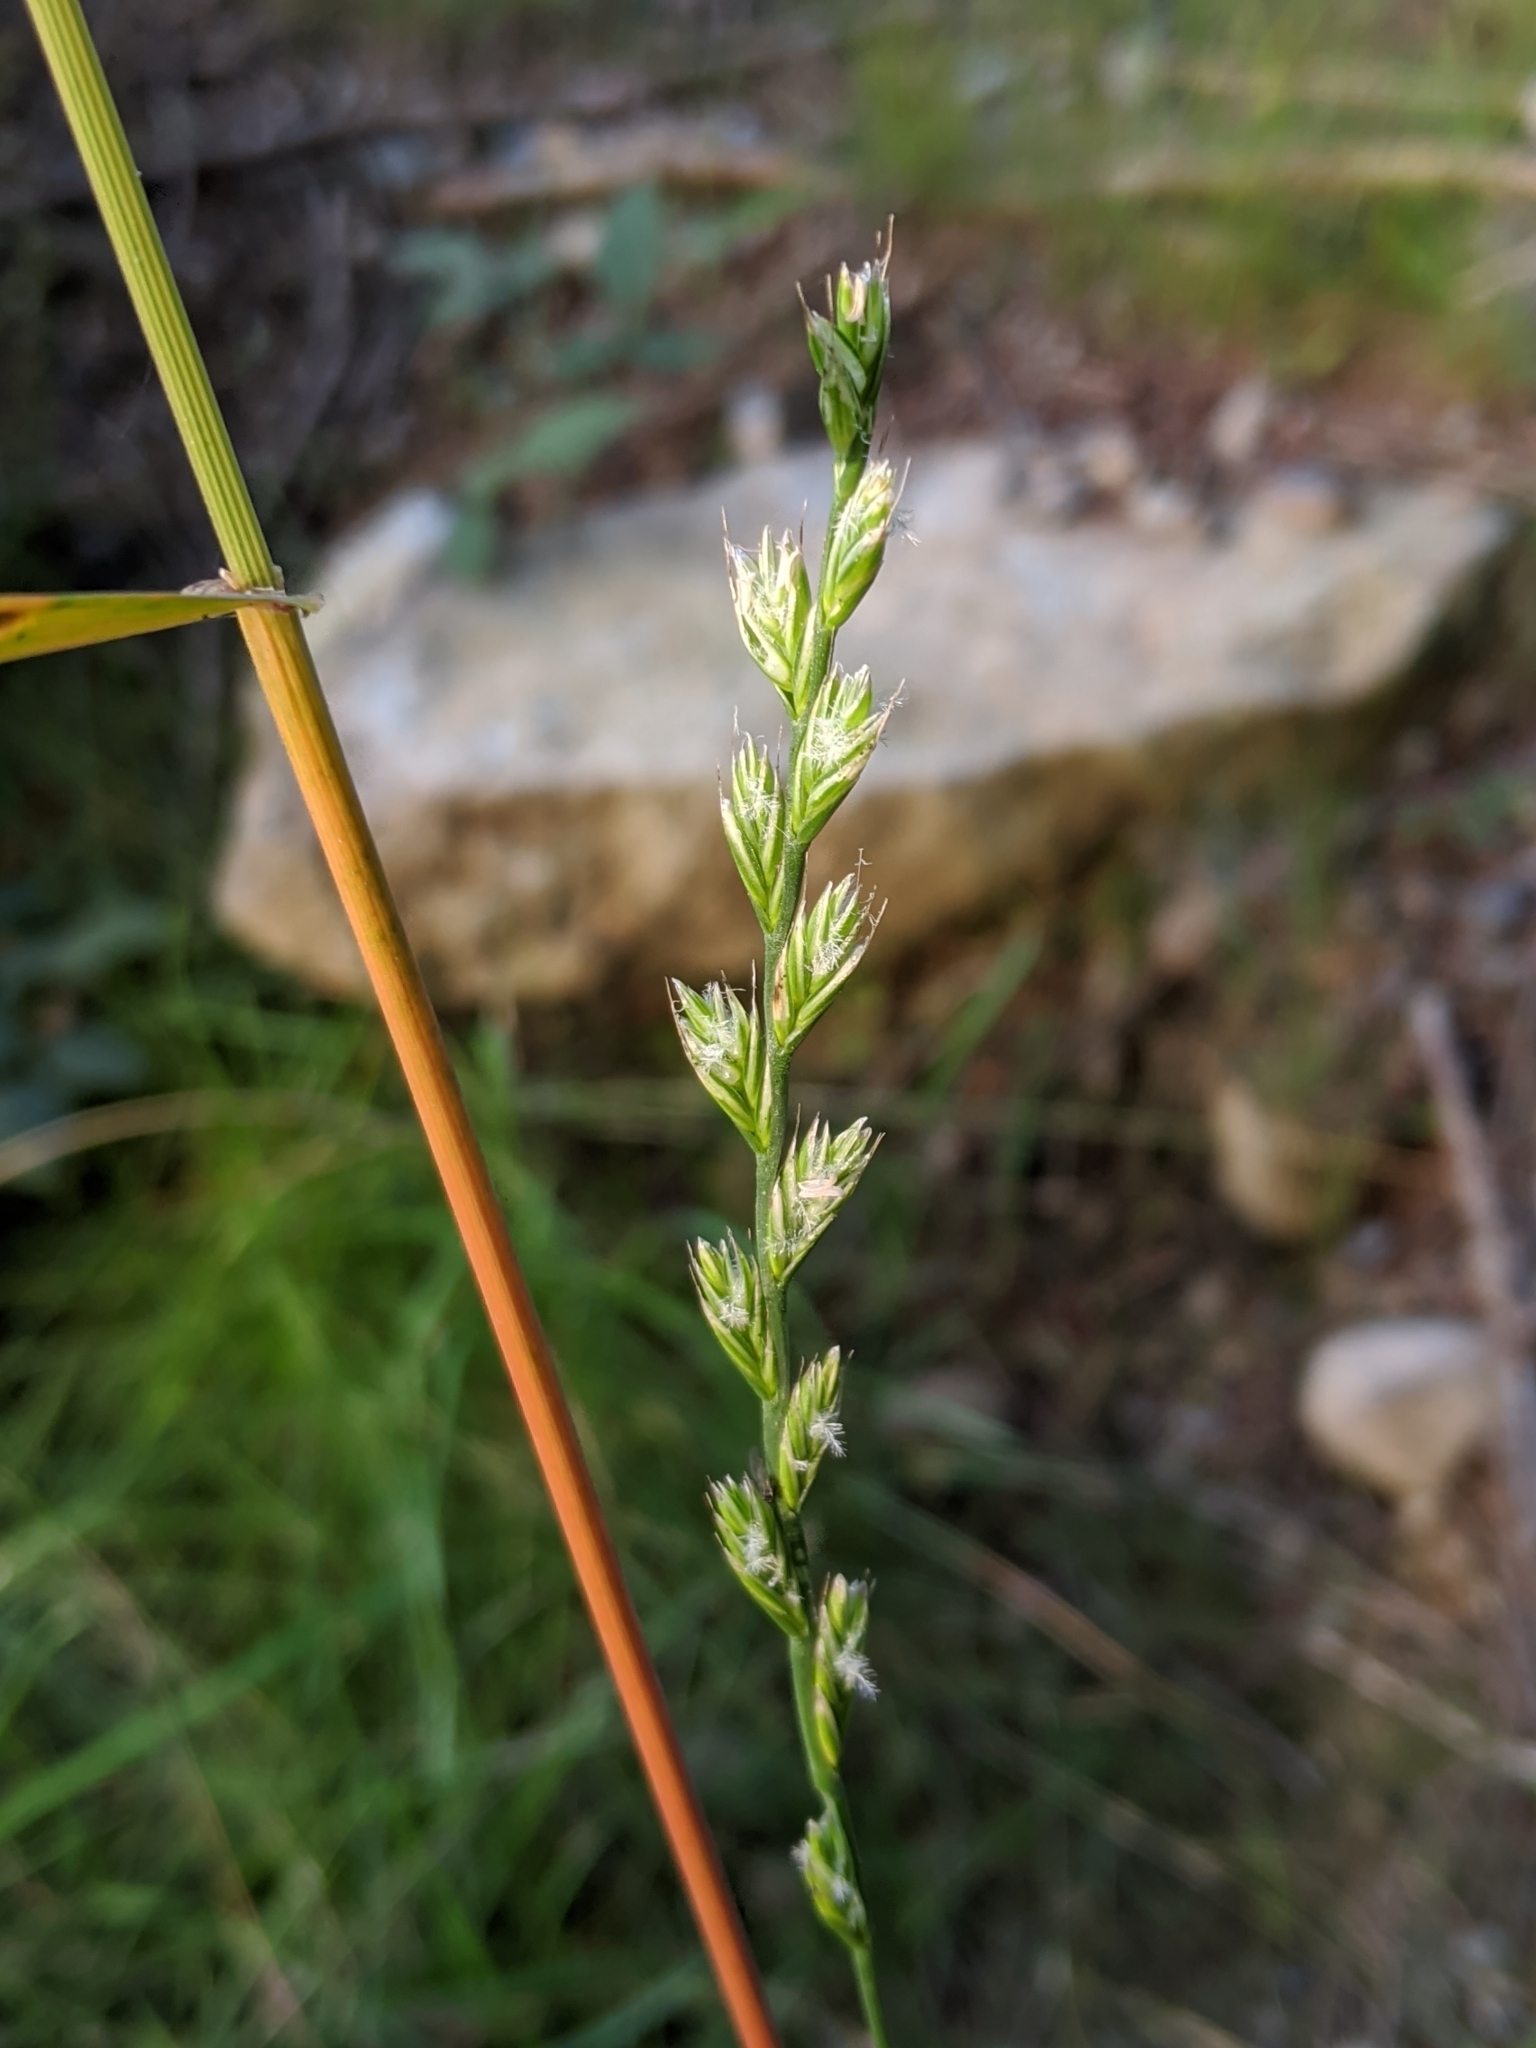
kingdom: Plantae
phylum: Tracheophyta
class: Liliopsida
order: Poales
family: Poaceae
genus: Lolium
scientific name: Lolium perenne
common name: Perennial ryegrass
